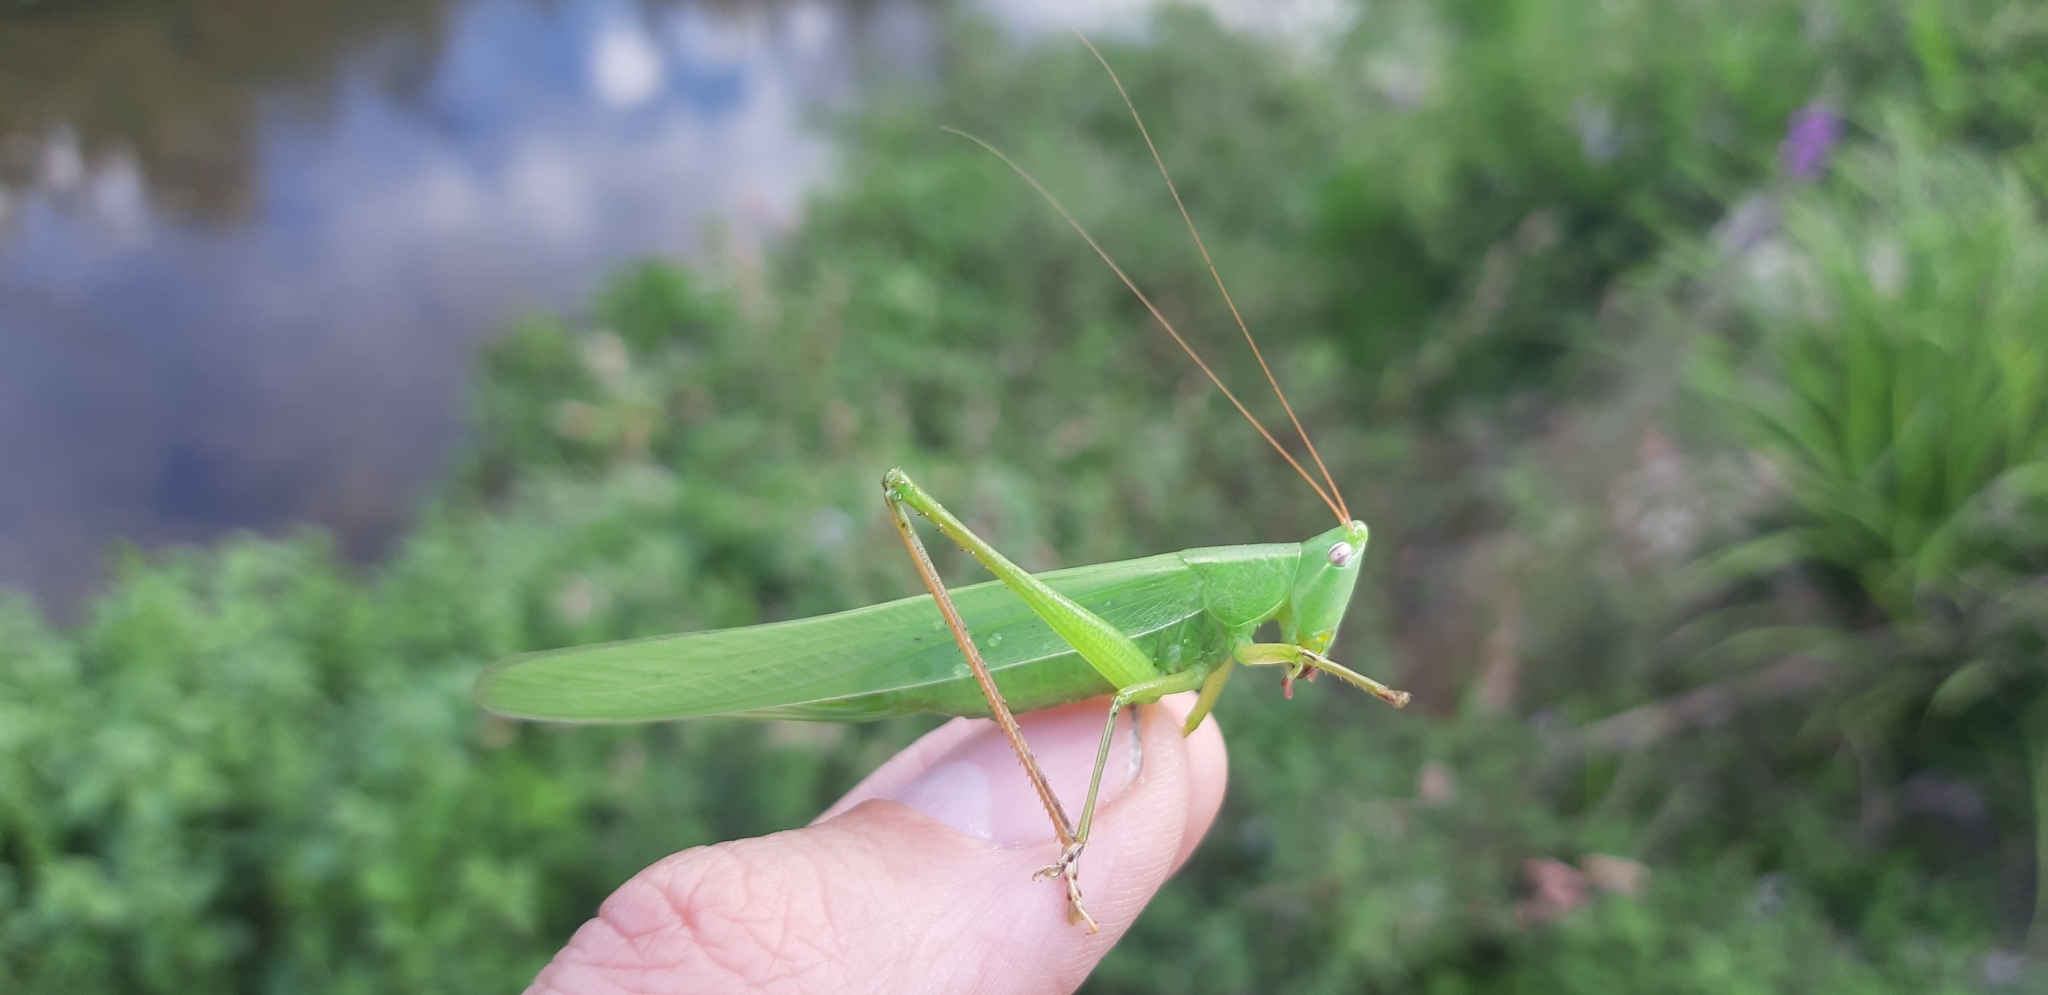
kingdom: Animalia
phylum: Arthropoda
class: Insecta
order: Orthoptera
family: Tettigoniidae
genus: Ruspolia
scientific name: Ruspolia nitidula
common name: Large conehead
